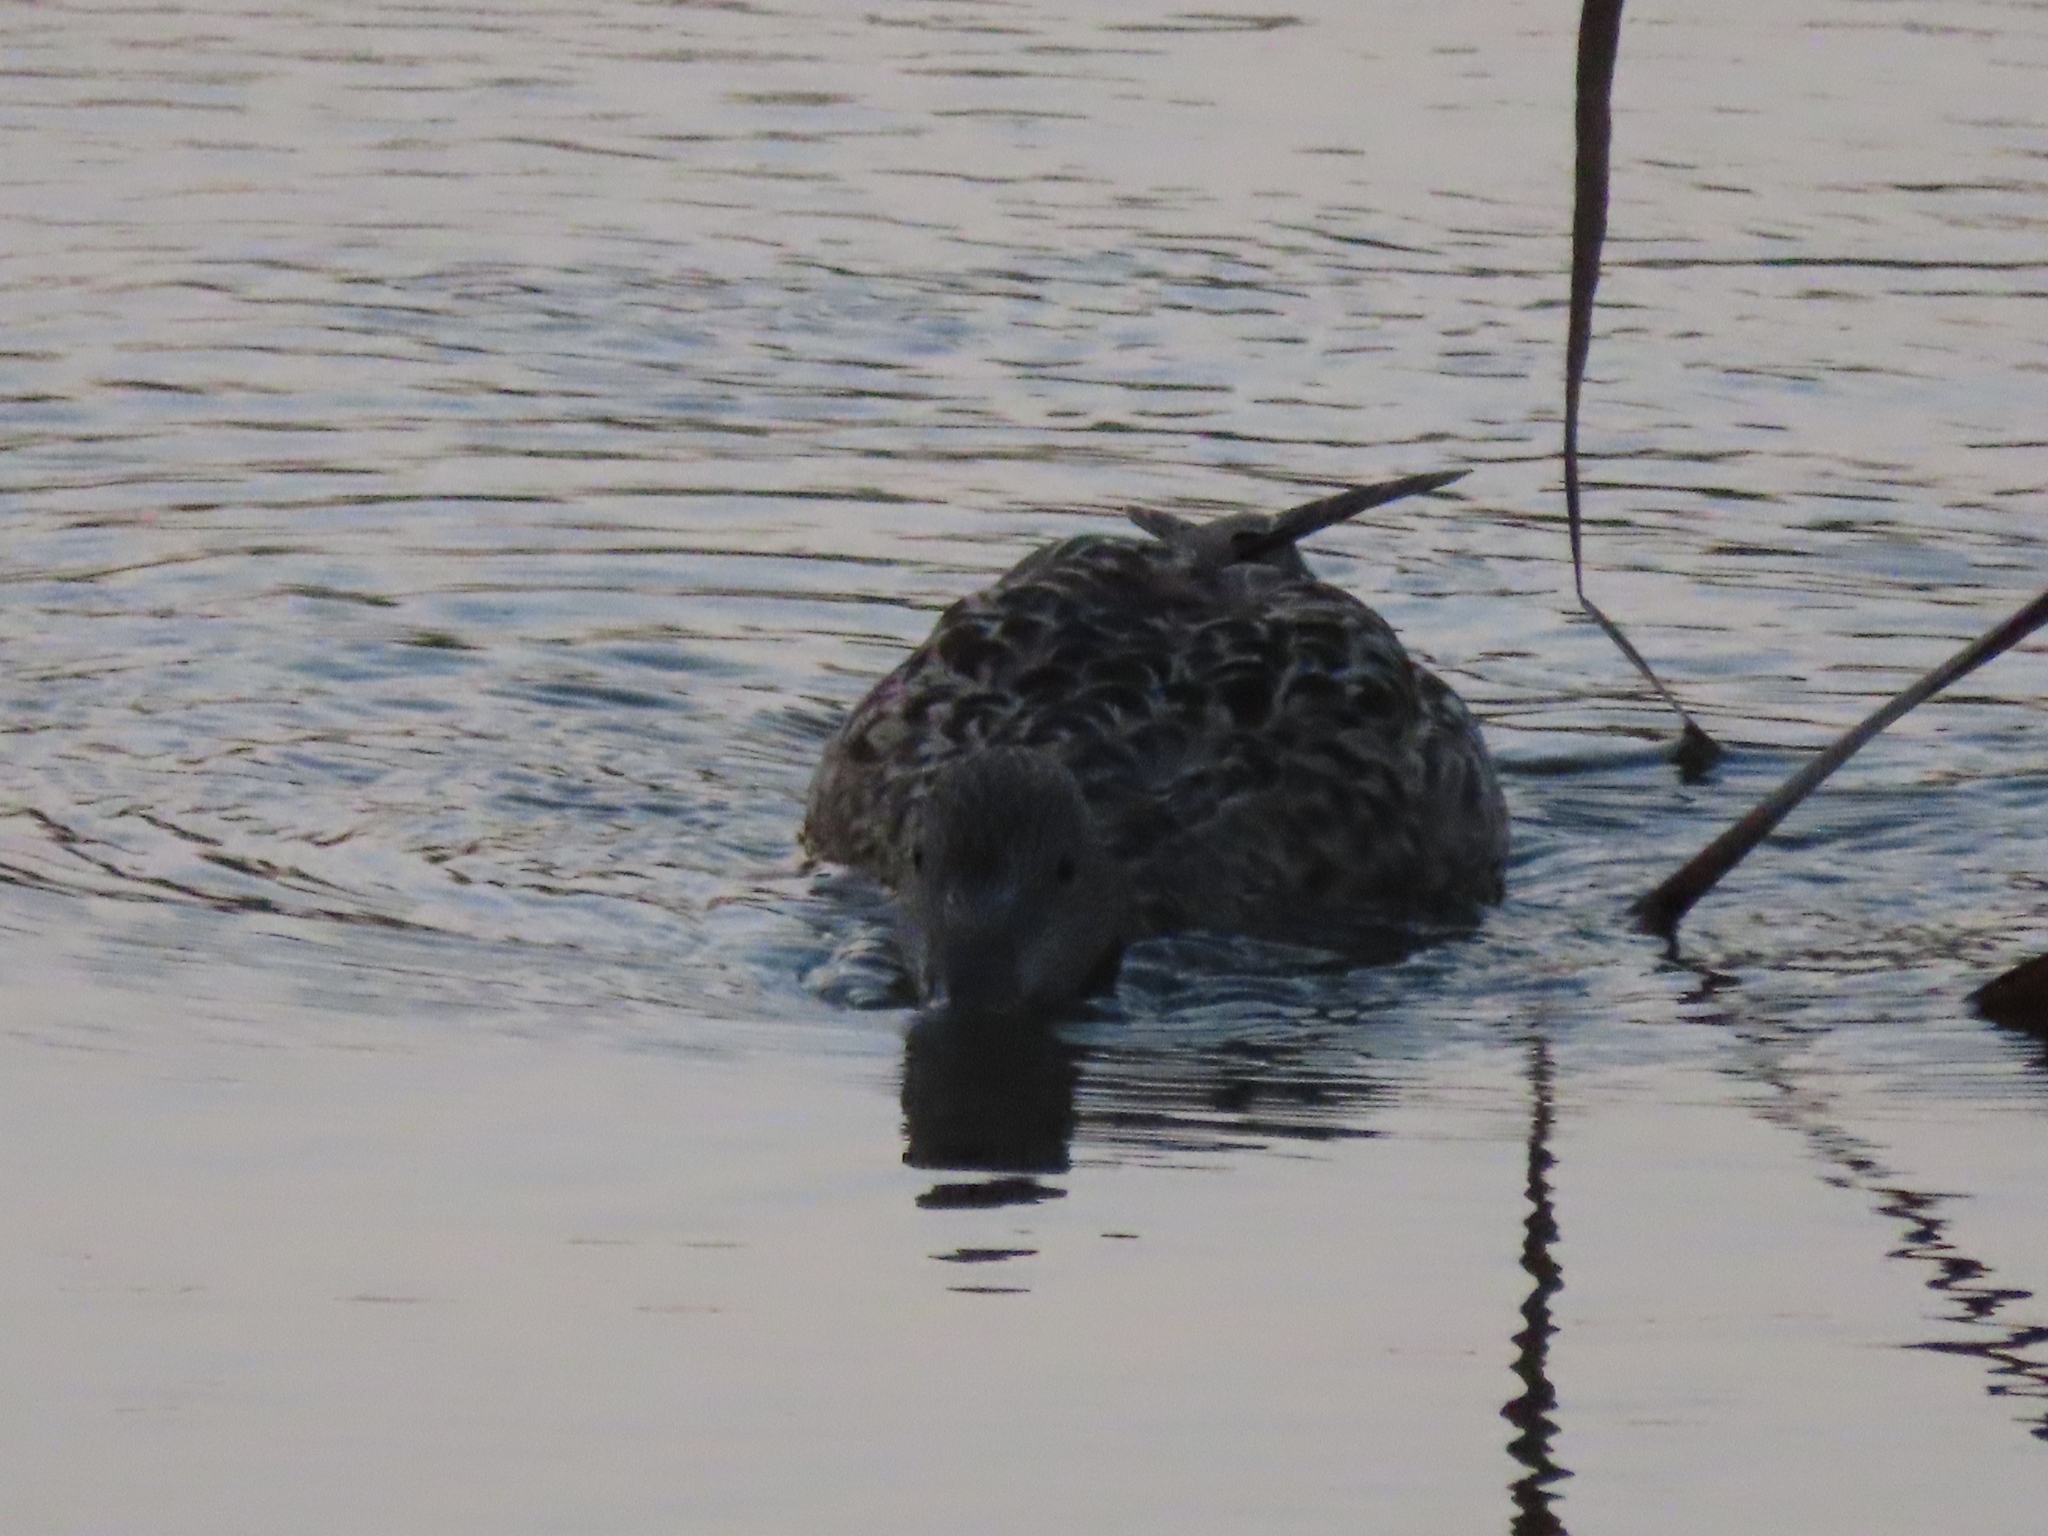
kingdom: Animalia
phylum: Chordata
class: Aves
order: Anseriformes
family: Anatidae
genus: Anas
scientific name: Anas fulvigula
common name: Mottled duck
